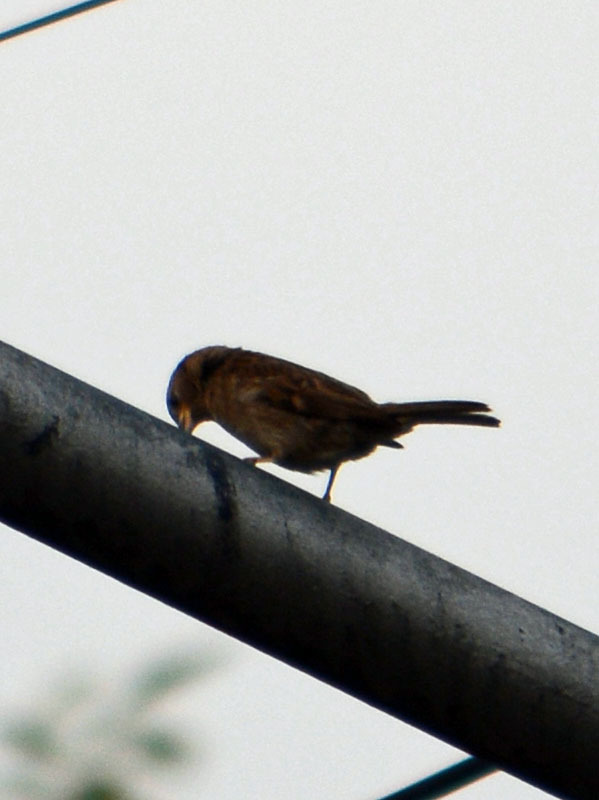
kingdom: Animalia
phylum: Chordata
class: Aves
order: Passeriformes
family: Passeridae
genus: Passer
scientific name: Passer domesticus
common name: House sparrow
